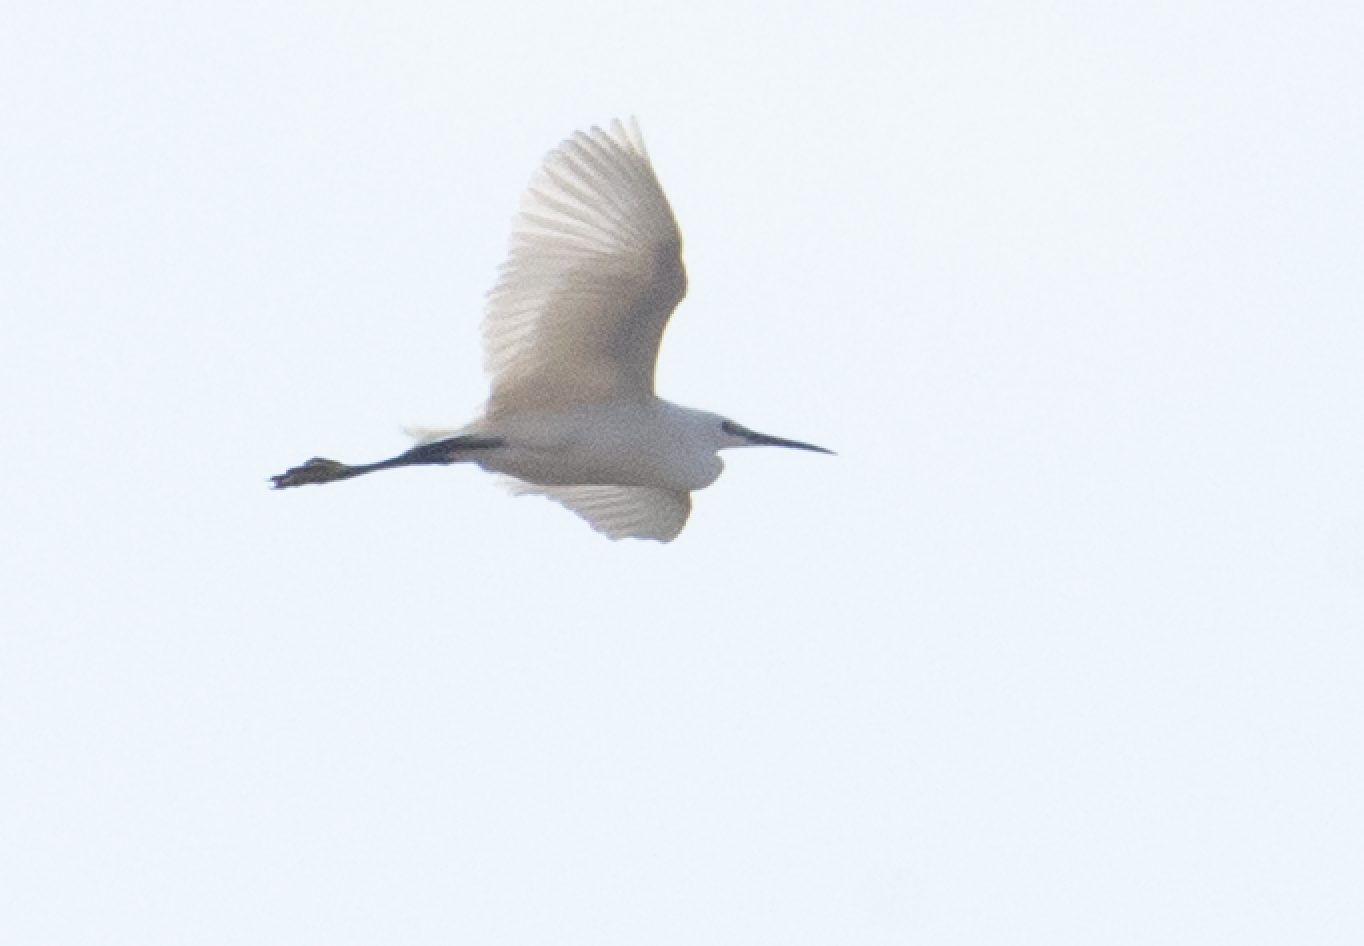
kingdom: Animalia
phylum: Chordata
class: Aves
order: Pelecaniformes
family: Ardeidae
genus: Egretta
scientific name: Egretta garzetta
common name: Little egret
